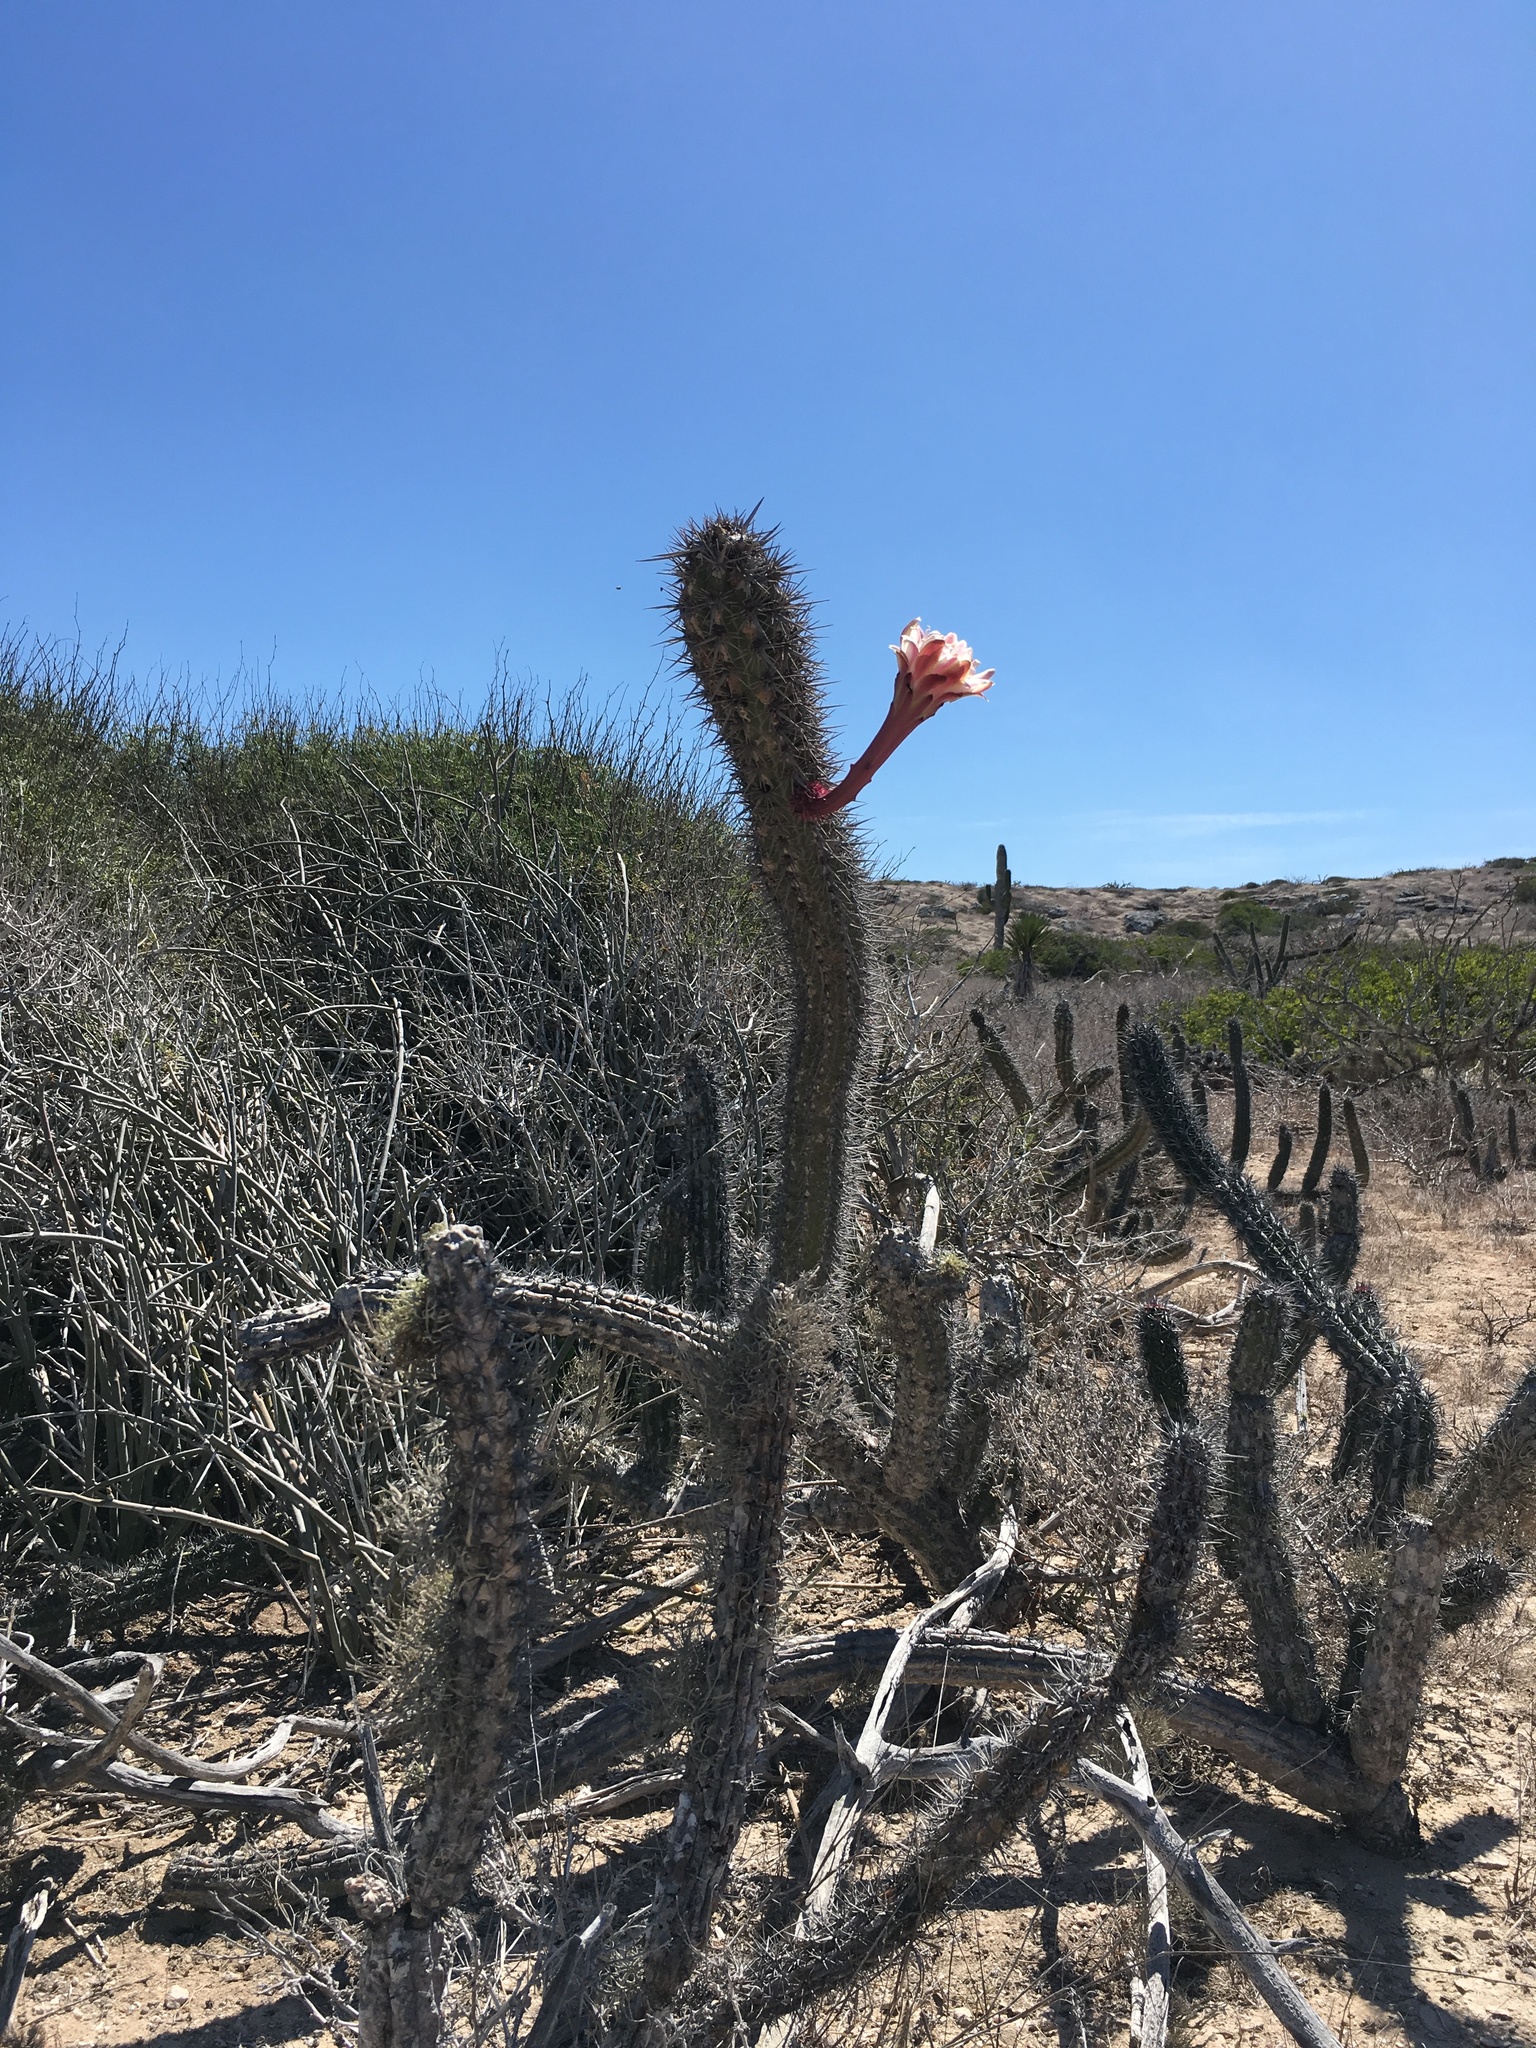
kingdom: Plantae
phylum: Tracheophyta
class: Magnoliopsida
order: Caryophyllales
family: Cactaceae
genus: Stenocereus
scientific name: Stenocereus gummosus
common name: Dagger cactus
